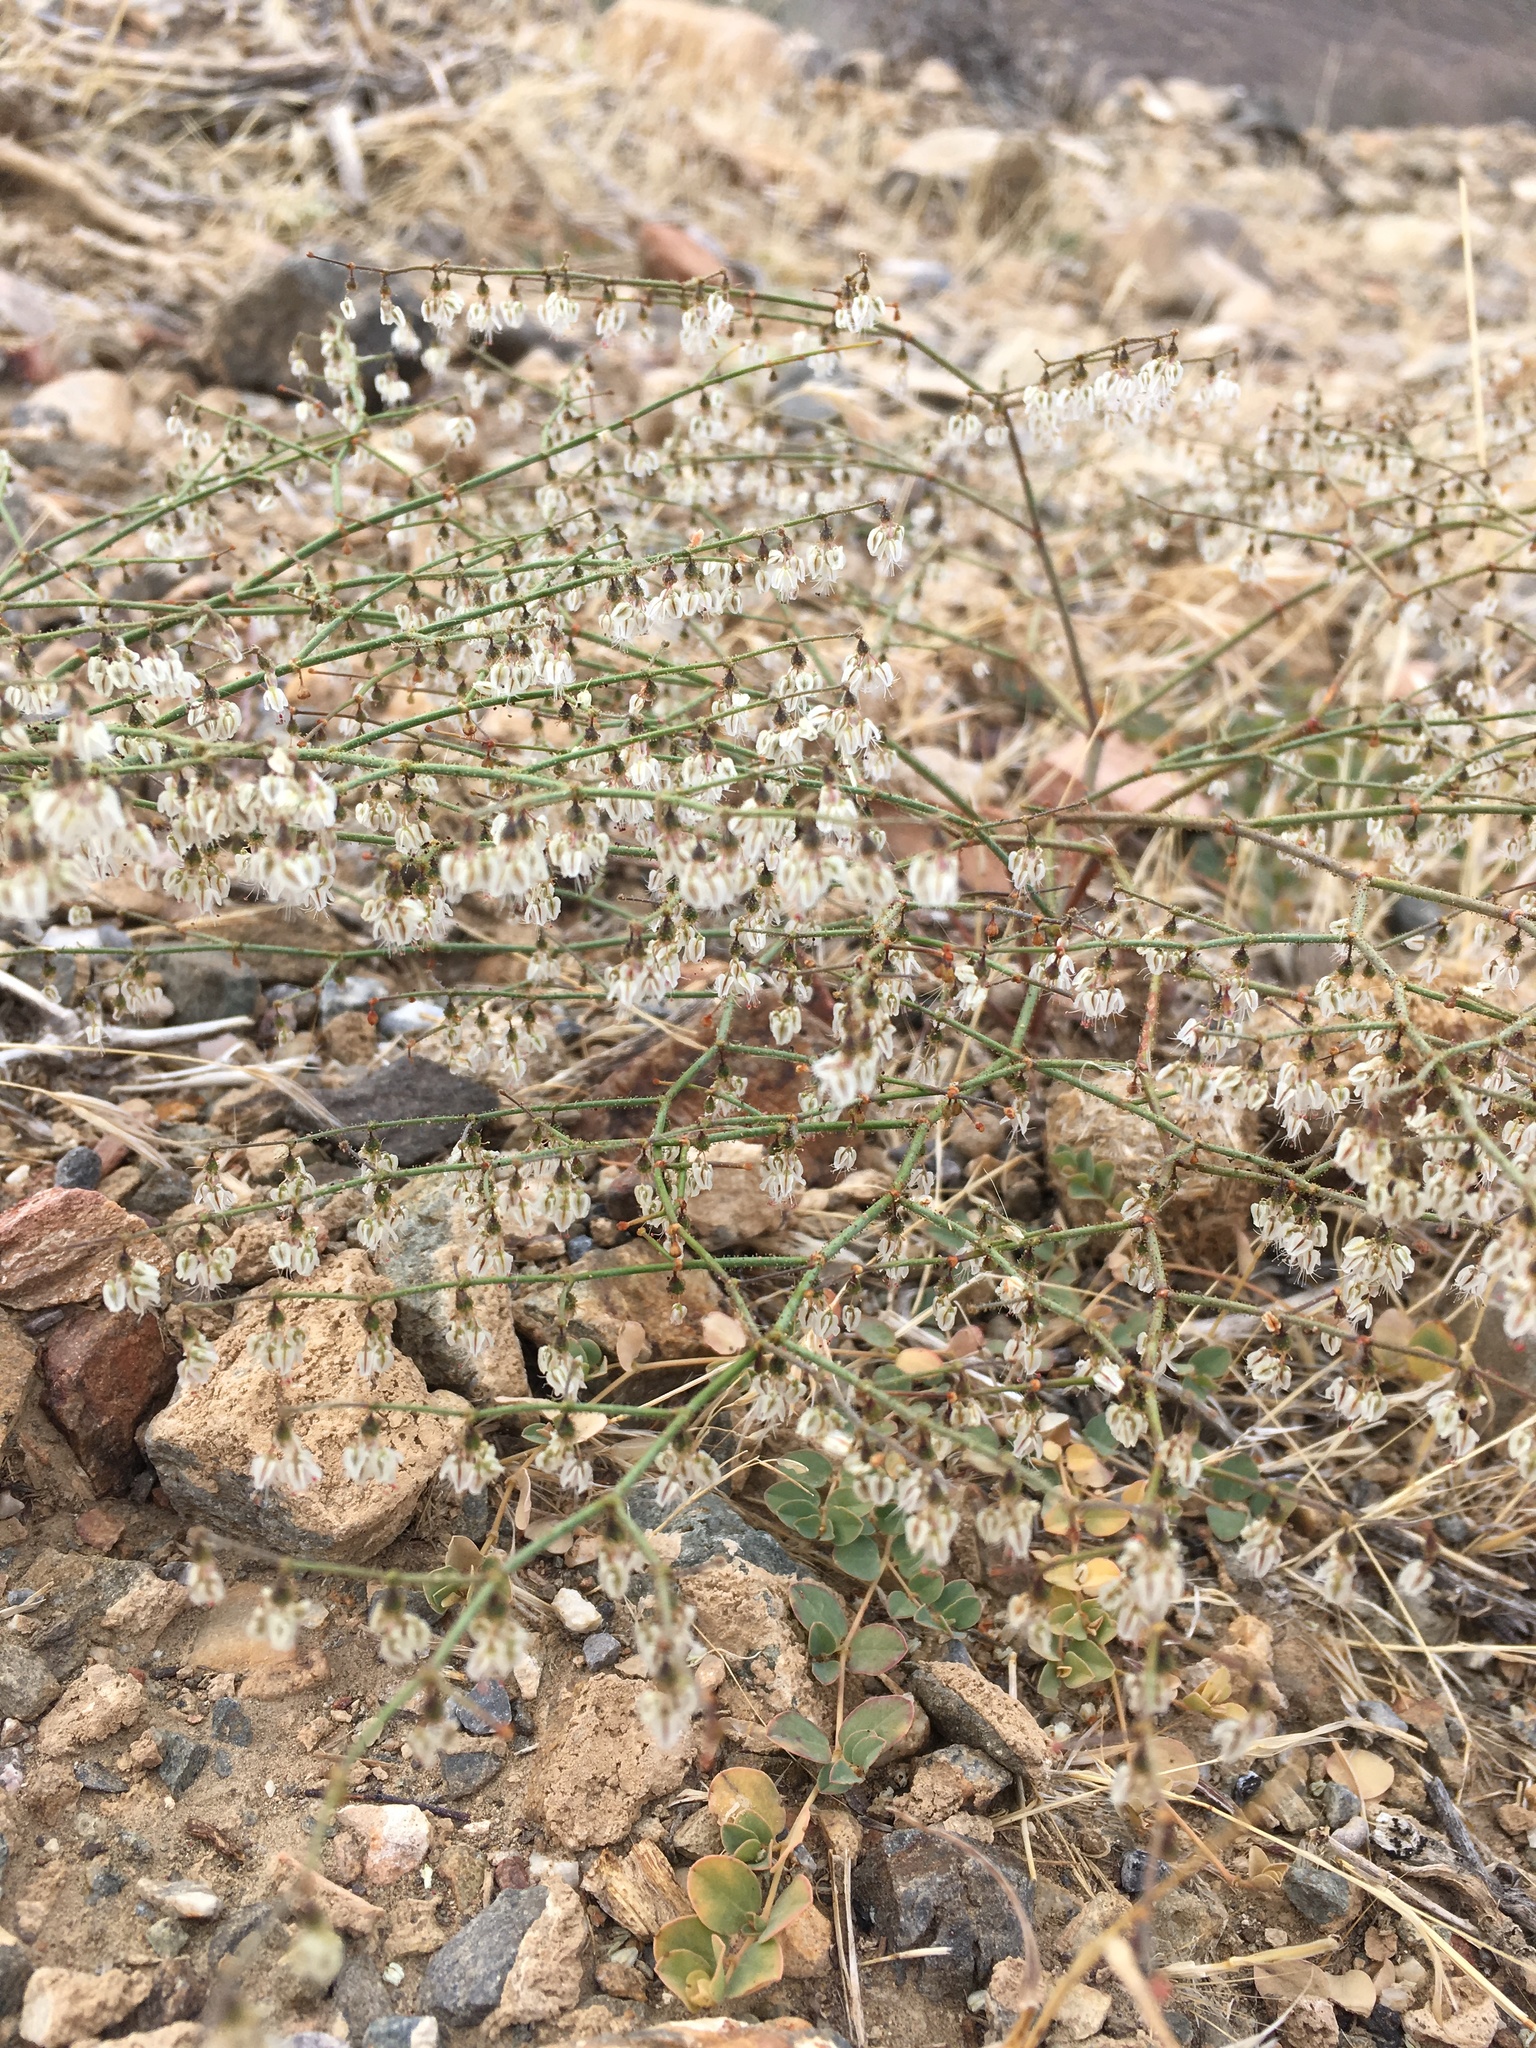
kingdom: Plantae
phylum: Tracheophyta
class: Magnoliopsida
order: Caryophyllales
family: Polygonaceae
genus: Eriogonum
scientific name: Eriogonum brachypodum
